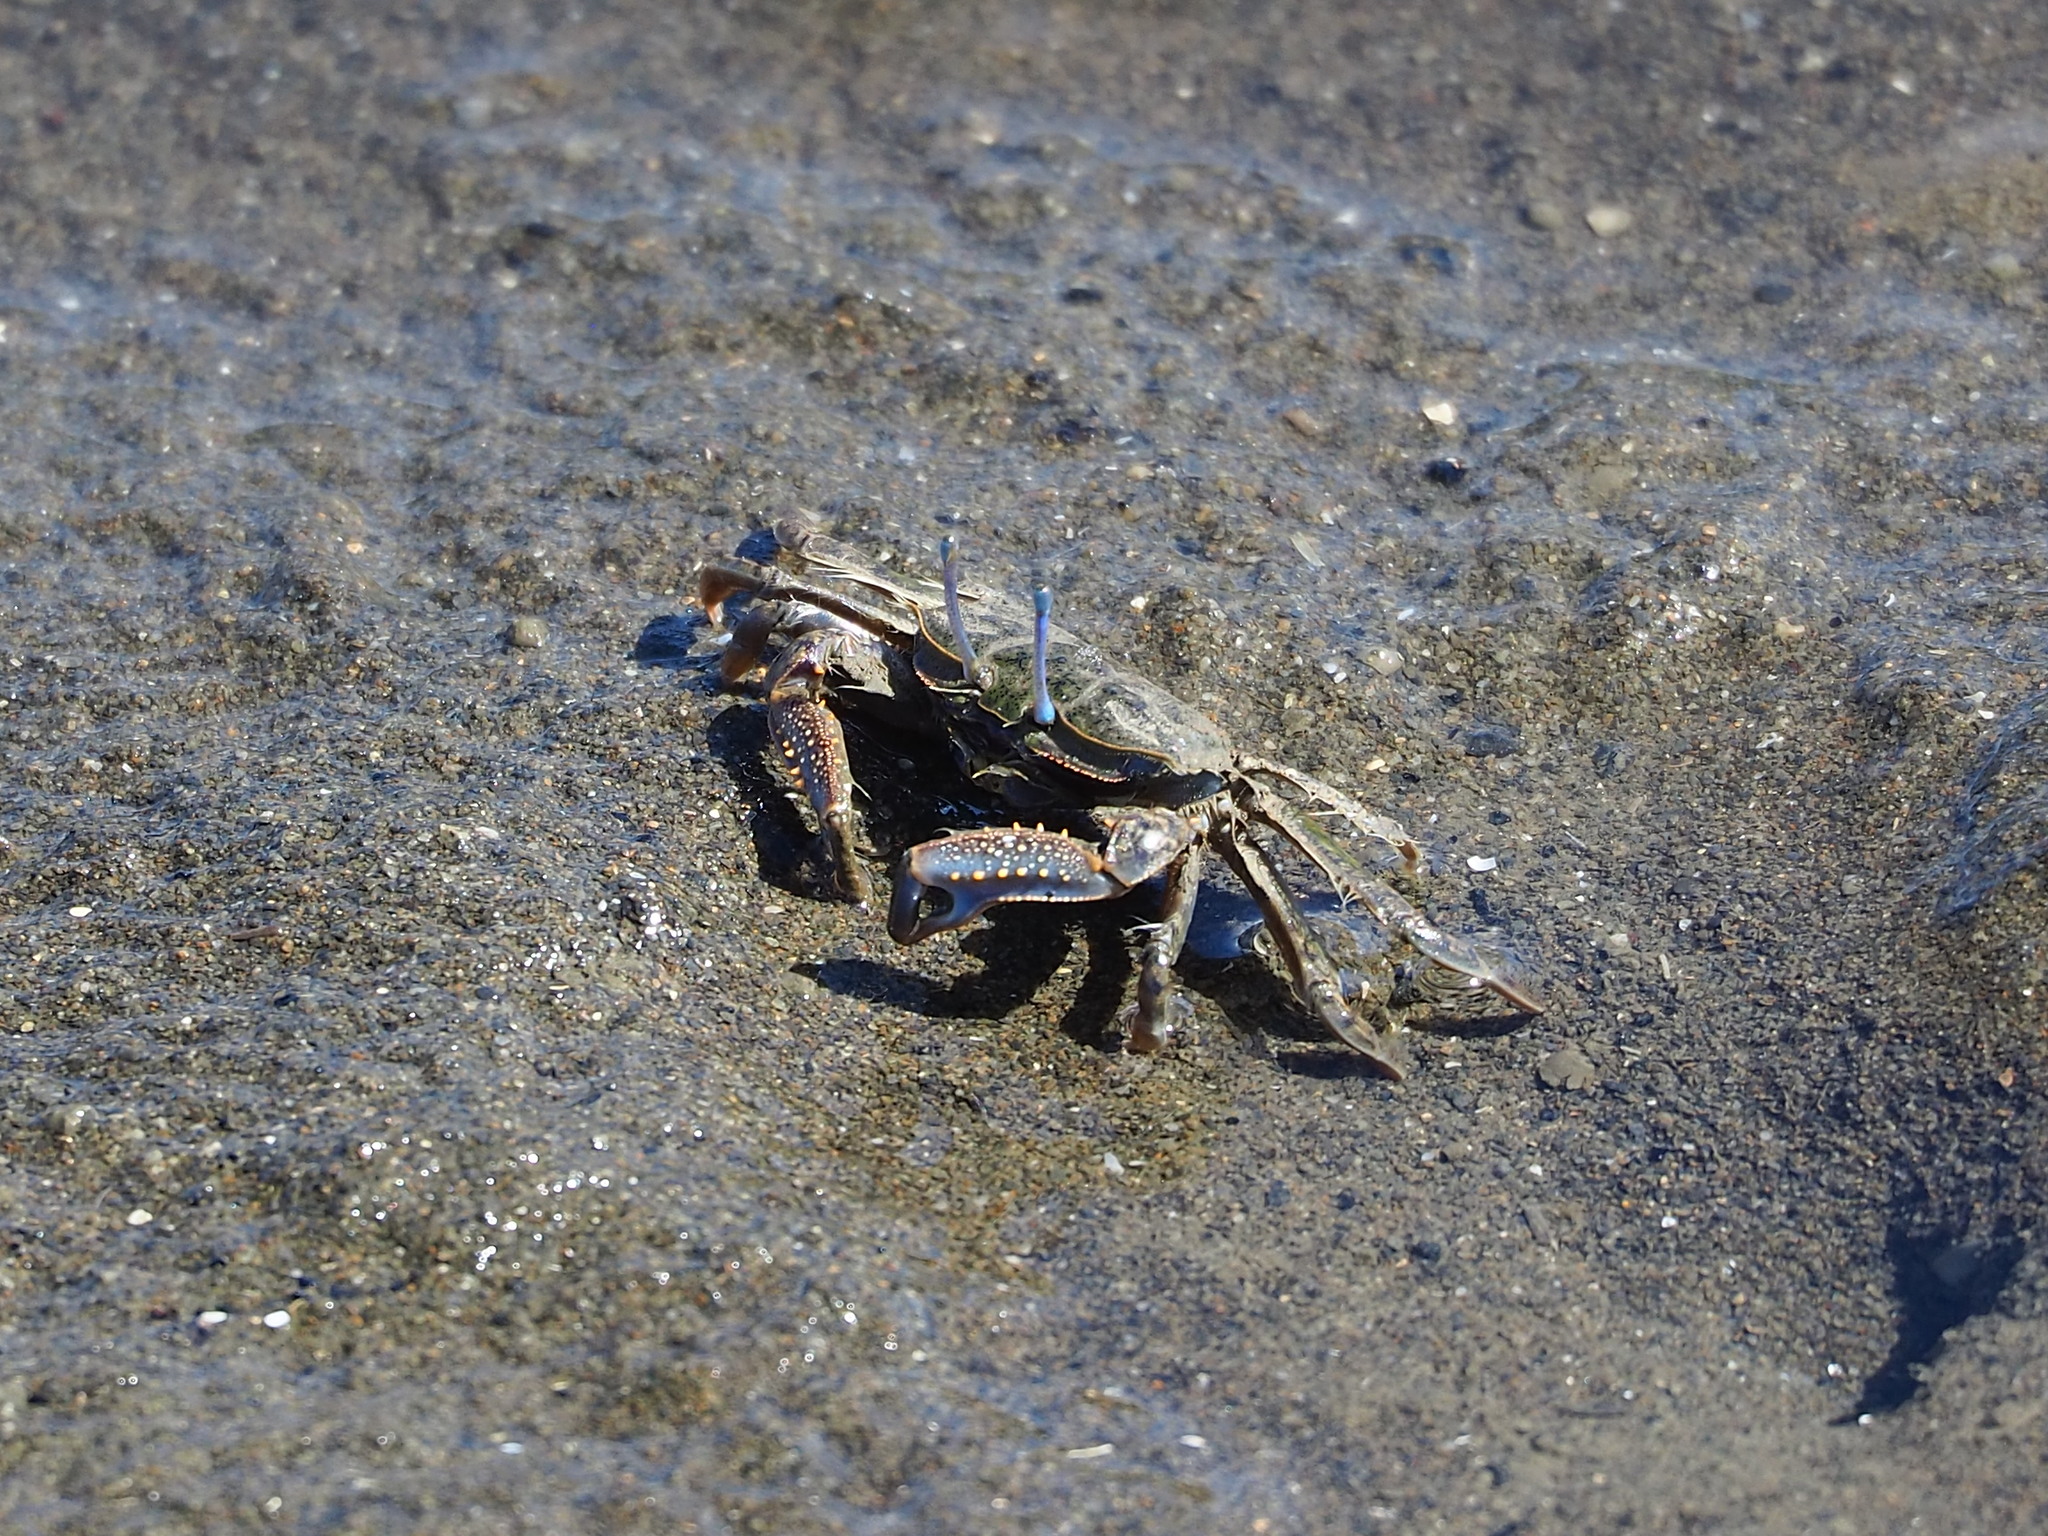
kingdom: Animalia
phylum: Arthropoda
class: Malacostraca
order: Decapoda
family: Macrophthalmidae
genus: Macrophthalmus
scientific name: Macrophthalmus abbreviatus
